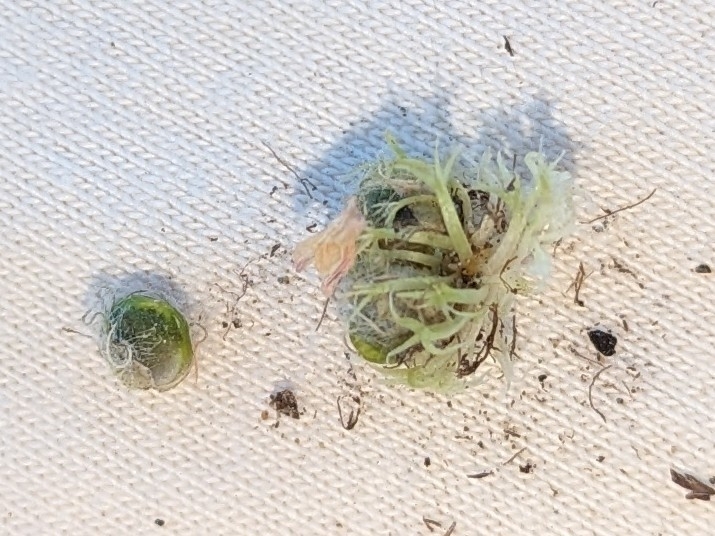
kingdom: Plantae
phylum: Tracheophyta
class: Magnoliopsida
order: Fabales
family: Fabaceae
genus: Trifolium
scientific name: Trifolium subterraneum
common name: Subterranean clover
